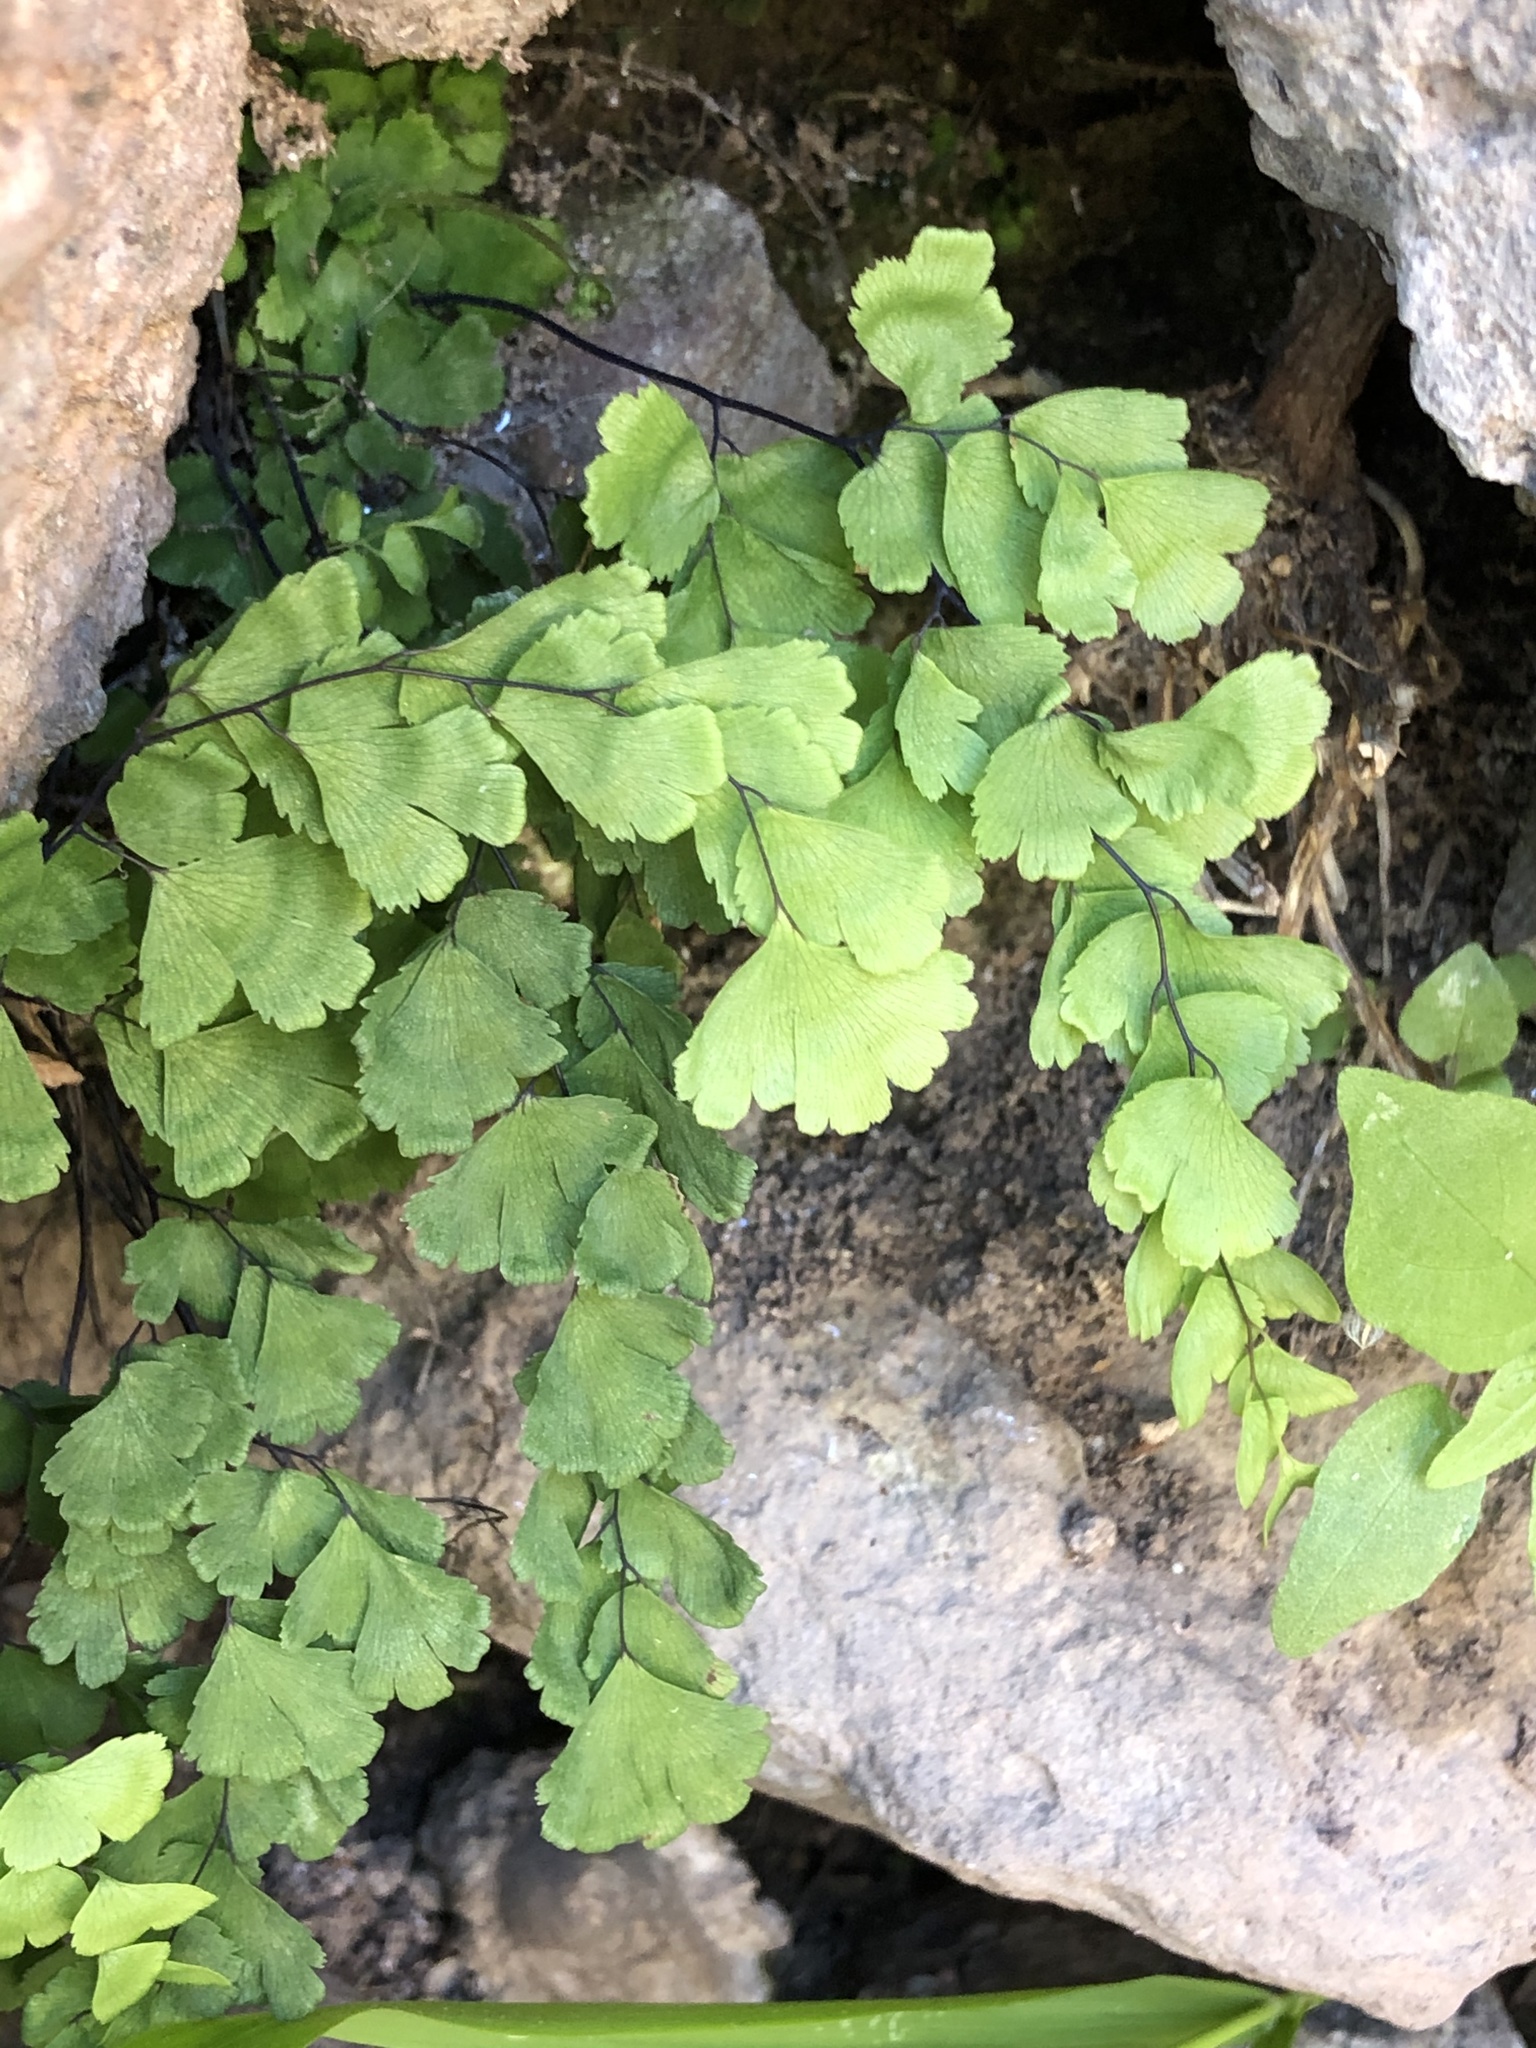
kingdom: Plantae
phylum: Tracheophyta
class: Polypodiopsida
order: Polypodiales
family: Pteridaceae
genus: Adiantum
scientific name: Adiantum capillus-veneris
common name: Maidenhair fern
